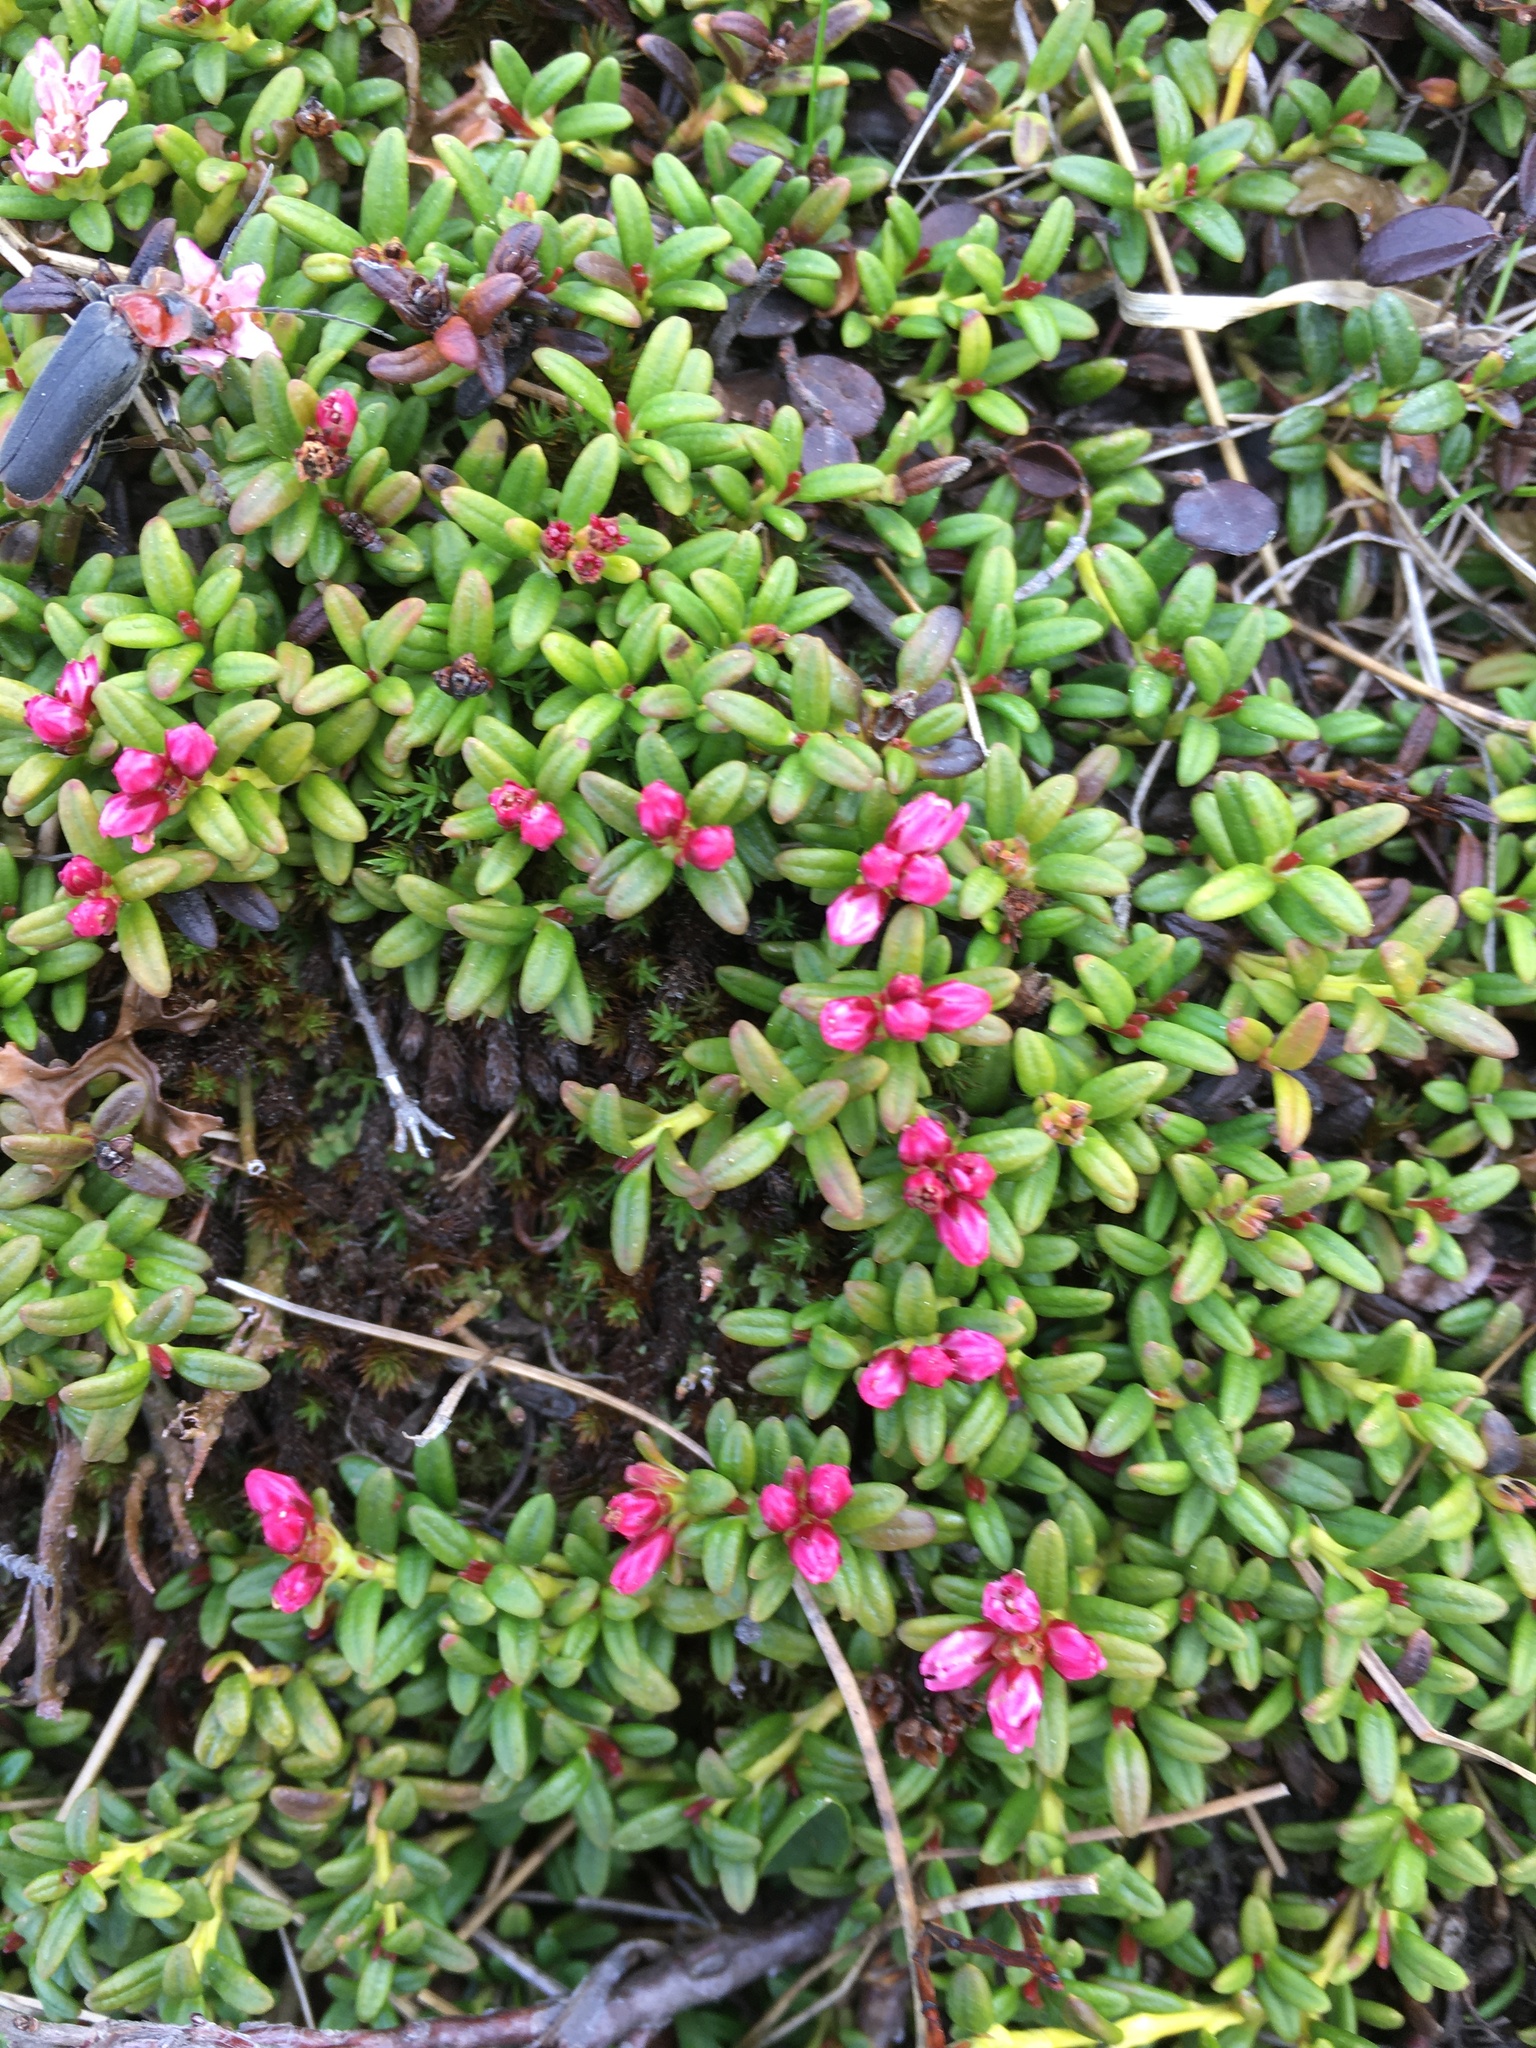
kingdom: Plantae
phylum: Tracheophyta
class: Magnoliopsida
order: Ericales
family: Ericaceae
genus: Kalmia
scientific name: Kalmia procumbens
